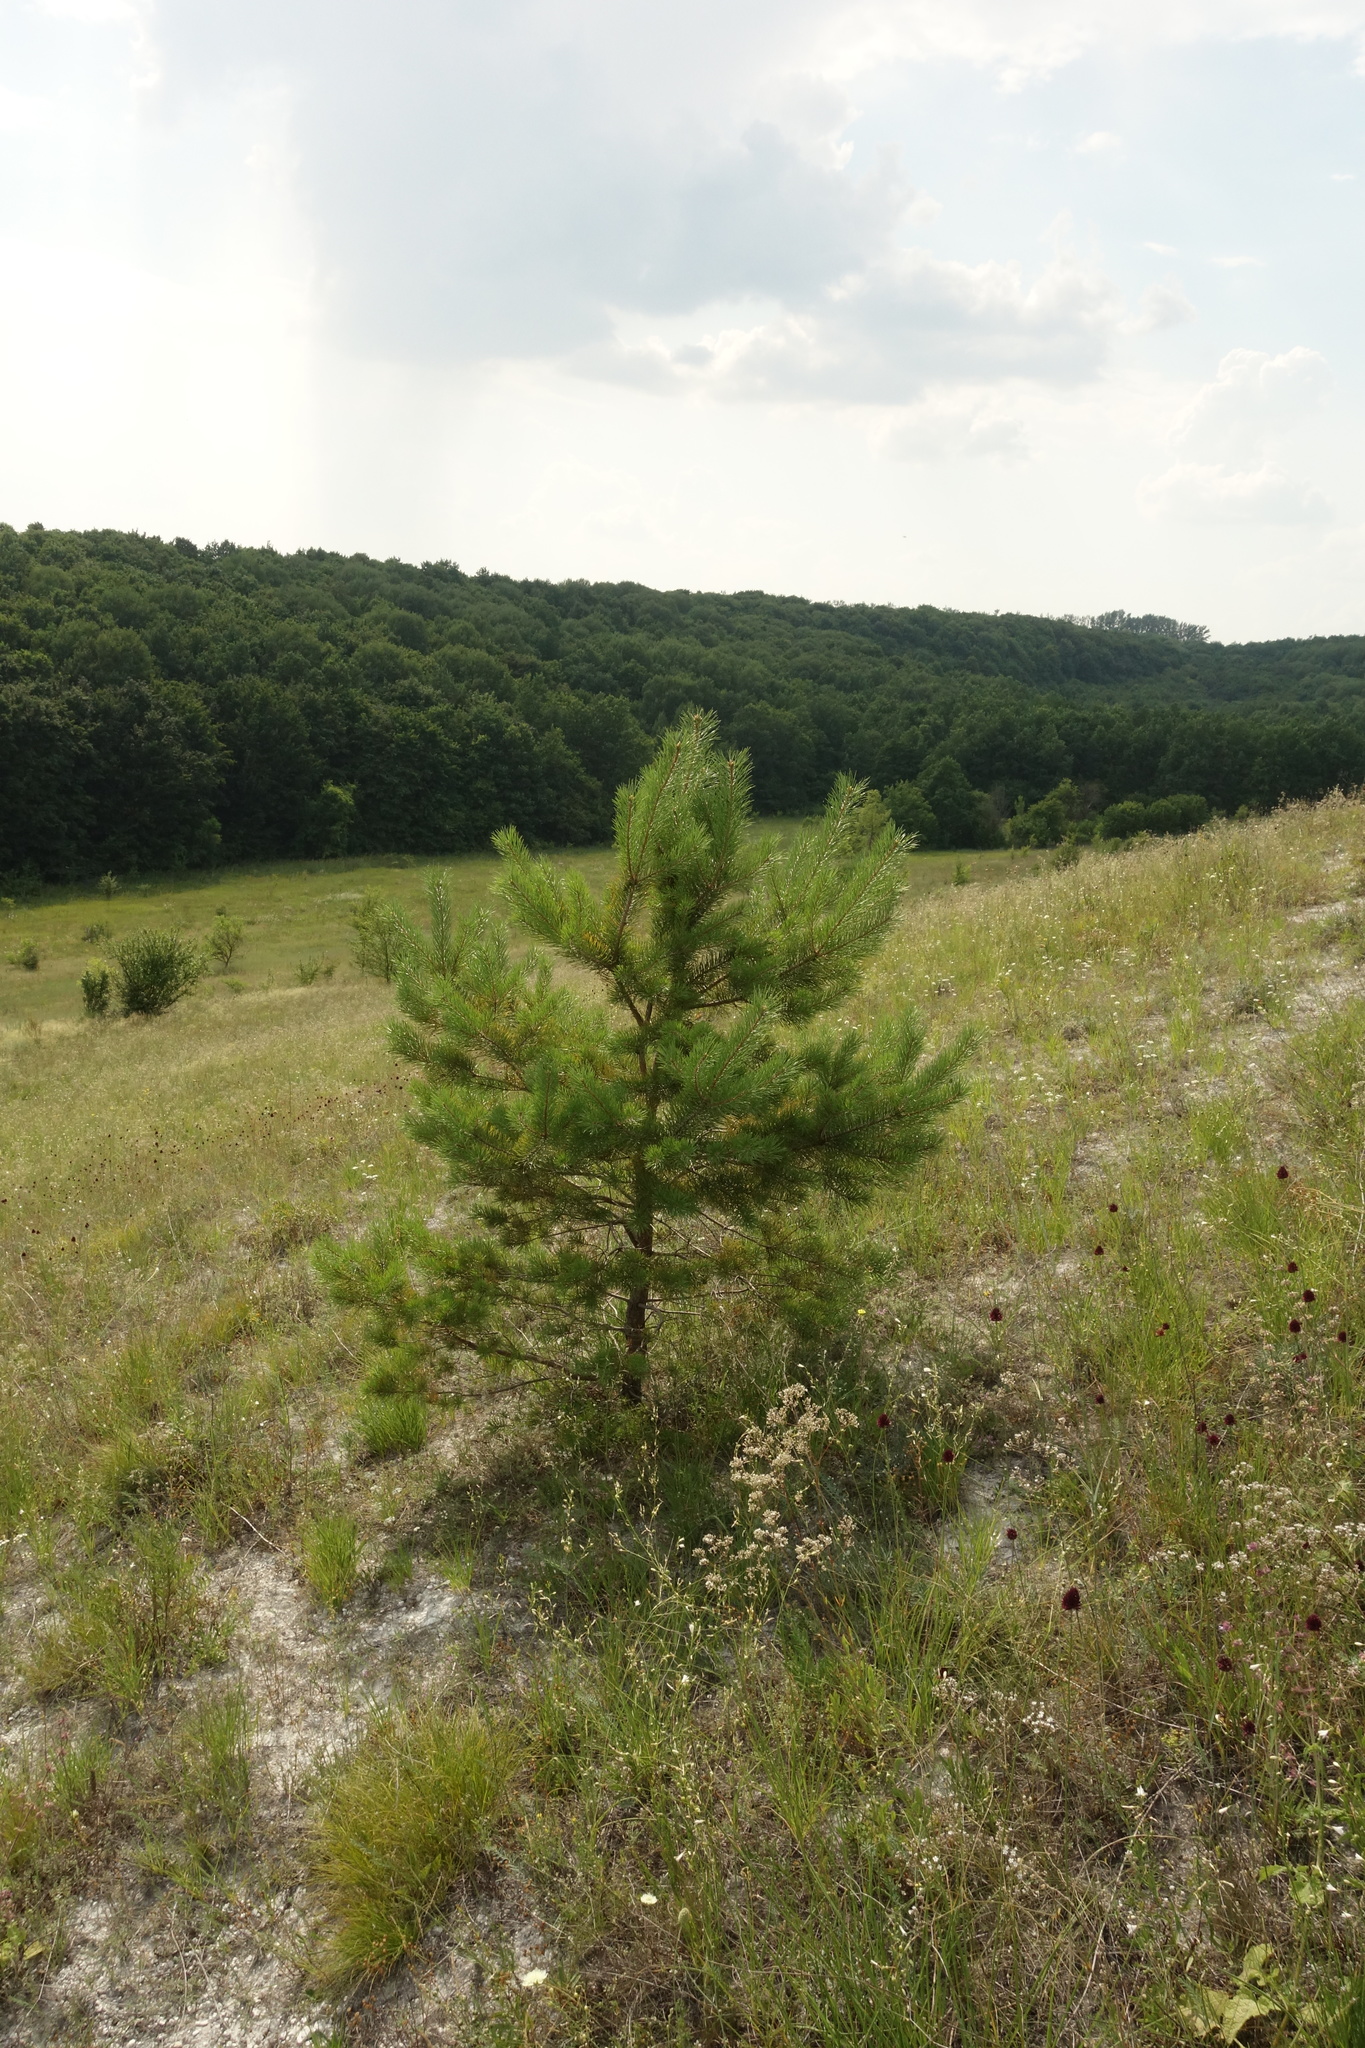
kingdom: Plantae
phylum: Tracheophyta
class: Pinopsida
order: Pinales
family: Pinaceae
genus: Pinus
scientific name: Pinus sylvestris
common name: Scots pine
